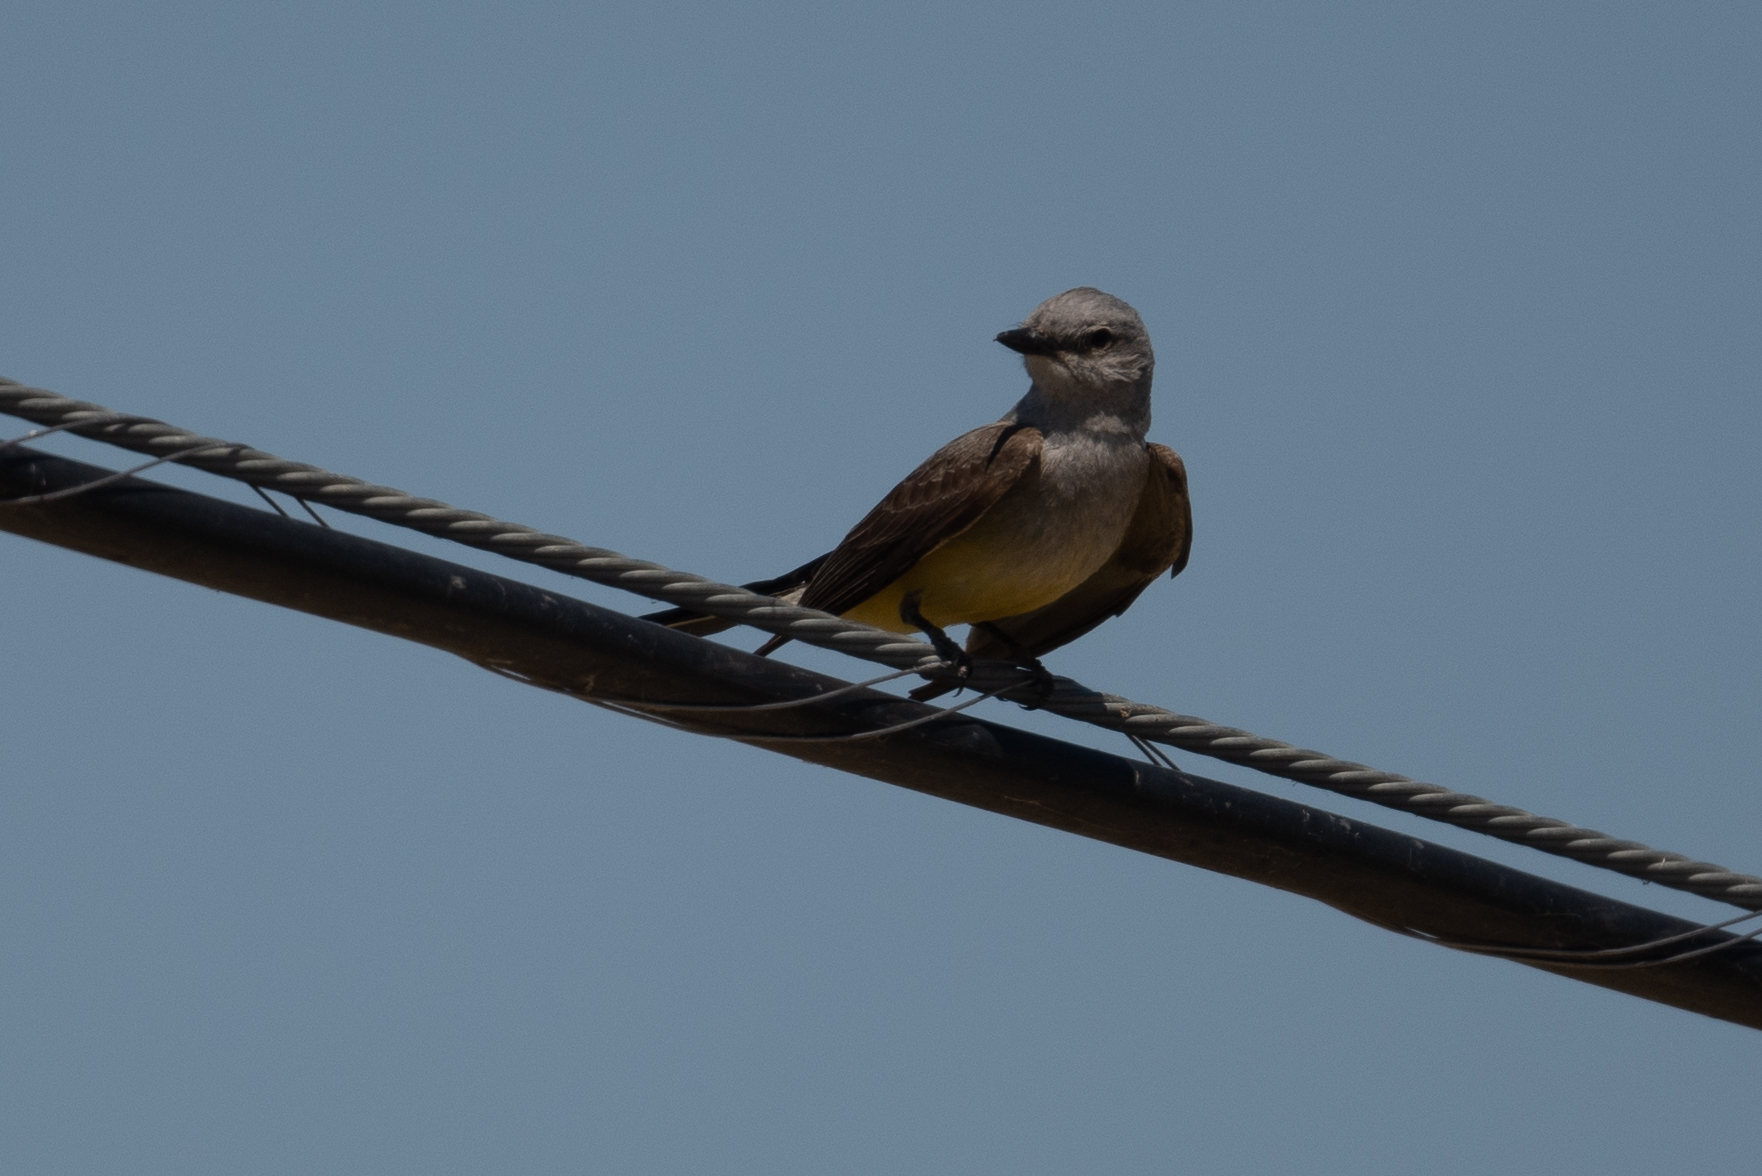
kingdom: Animalia
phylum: Chordata
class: Aves
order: Passeriformes
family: Tyrannidae
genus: Tyrannus
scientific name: Tyrannus verticalis
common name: Western kingbird
